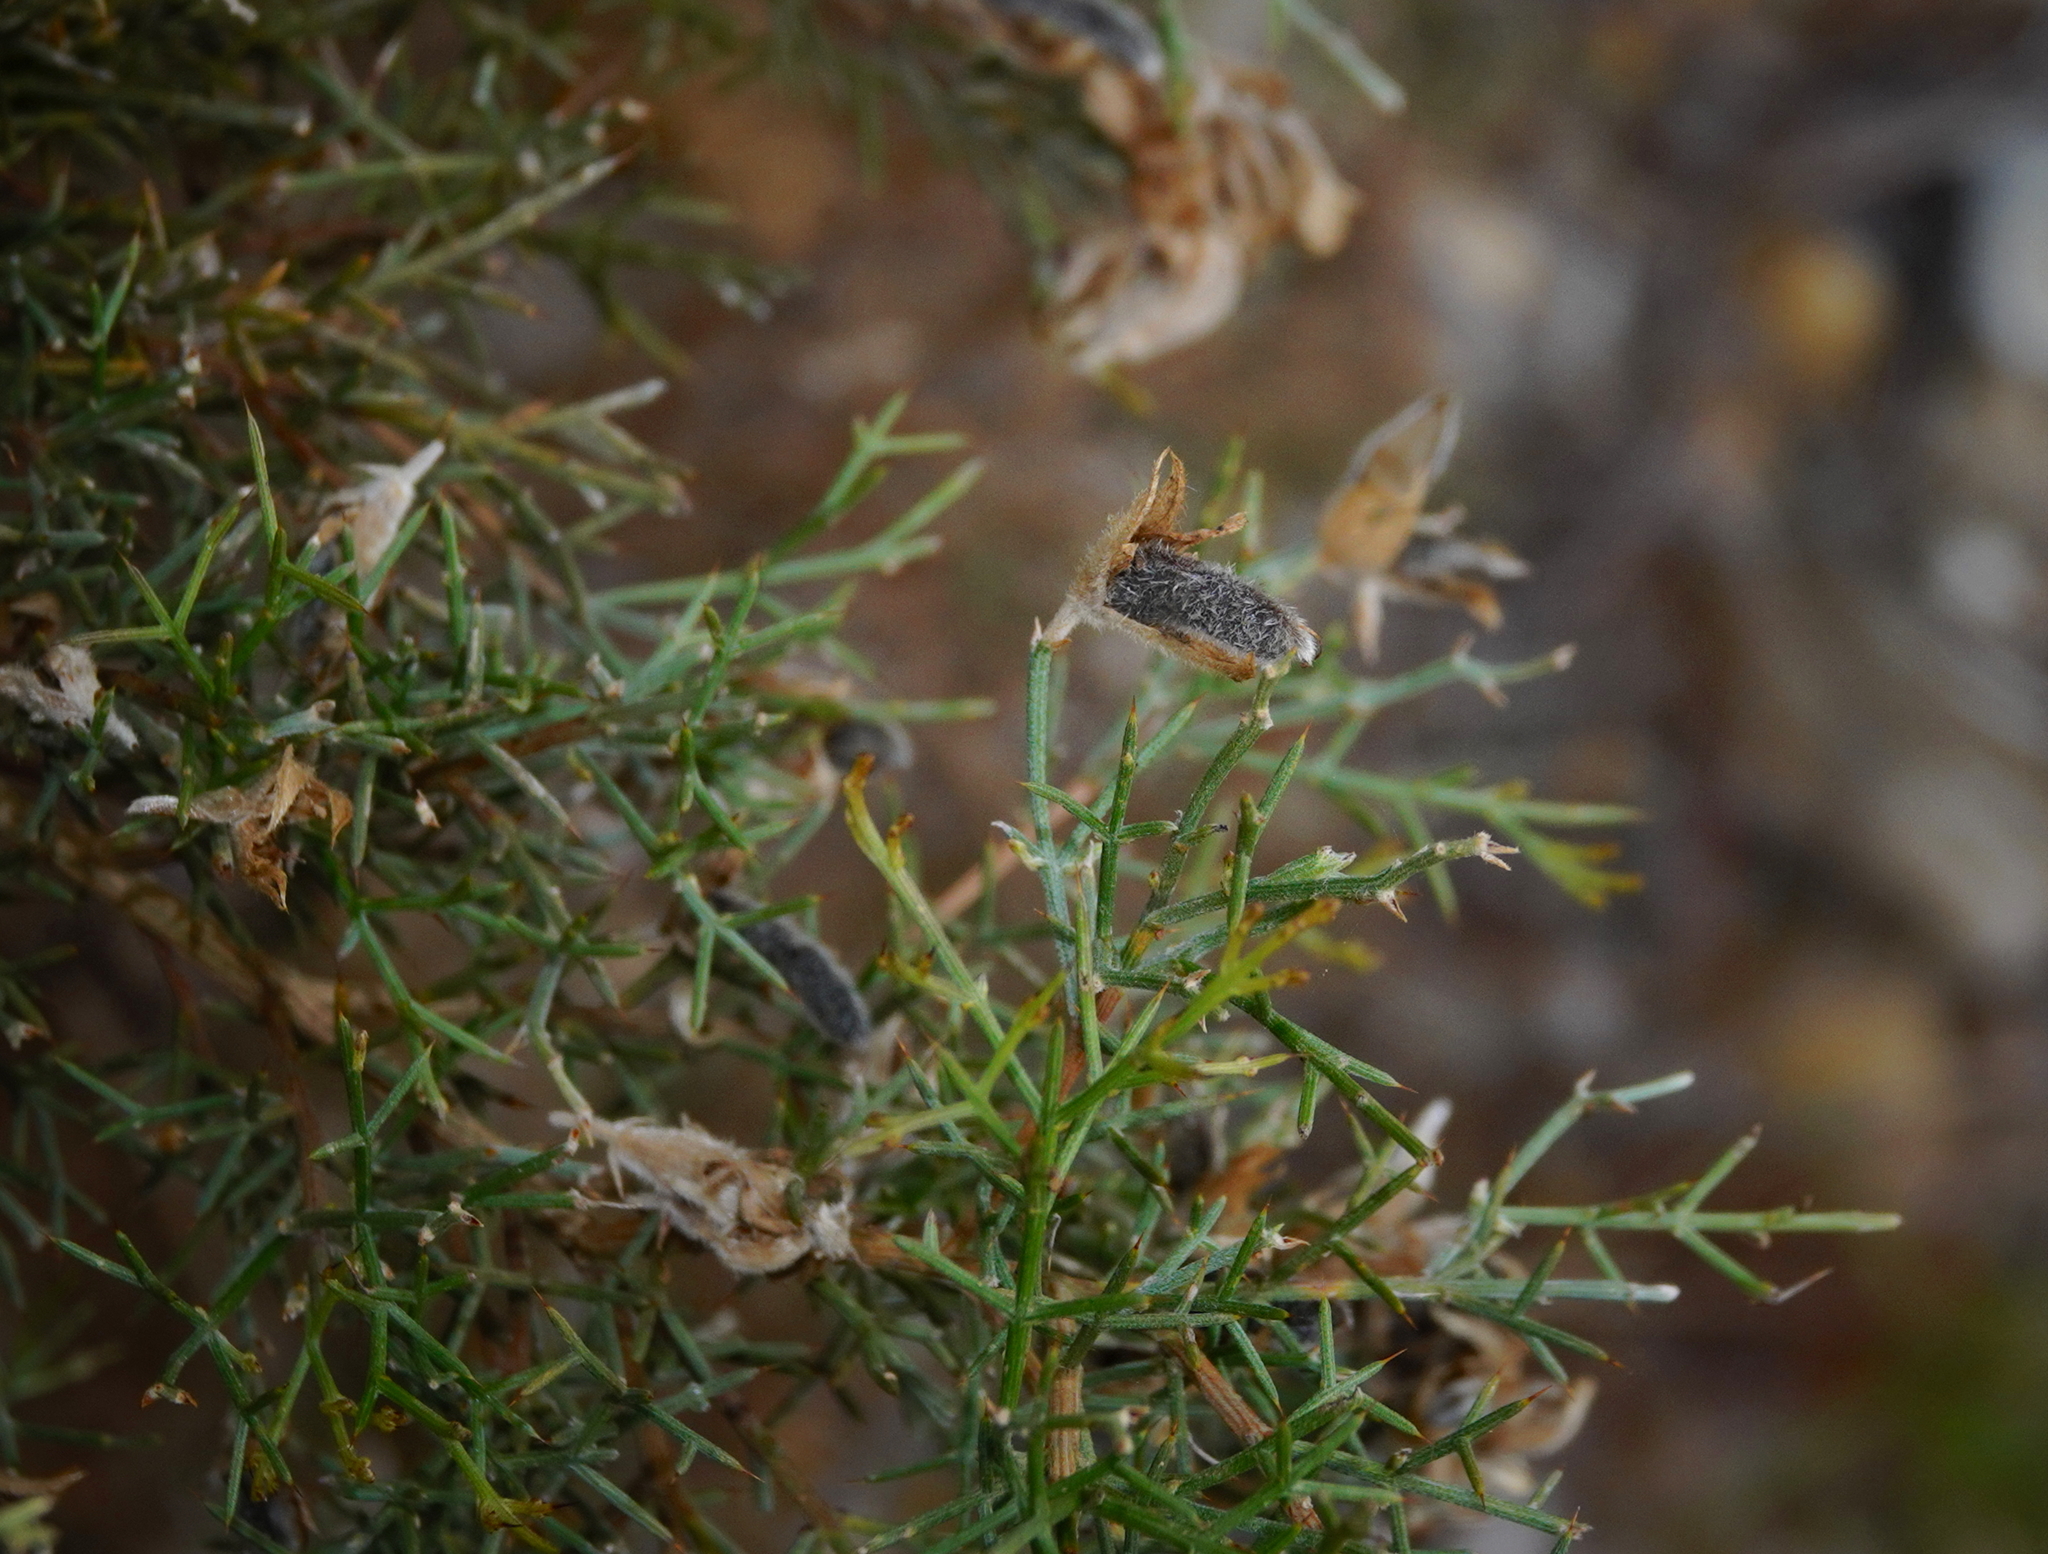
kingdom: Plantae
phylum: Tracheophyta
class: Magnoliopsida
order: Fabales
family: Fabaceae
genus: Stauracanthus
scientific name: Stauracanthus genistoides
